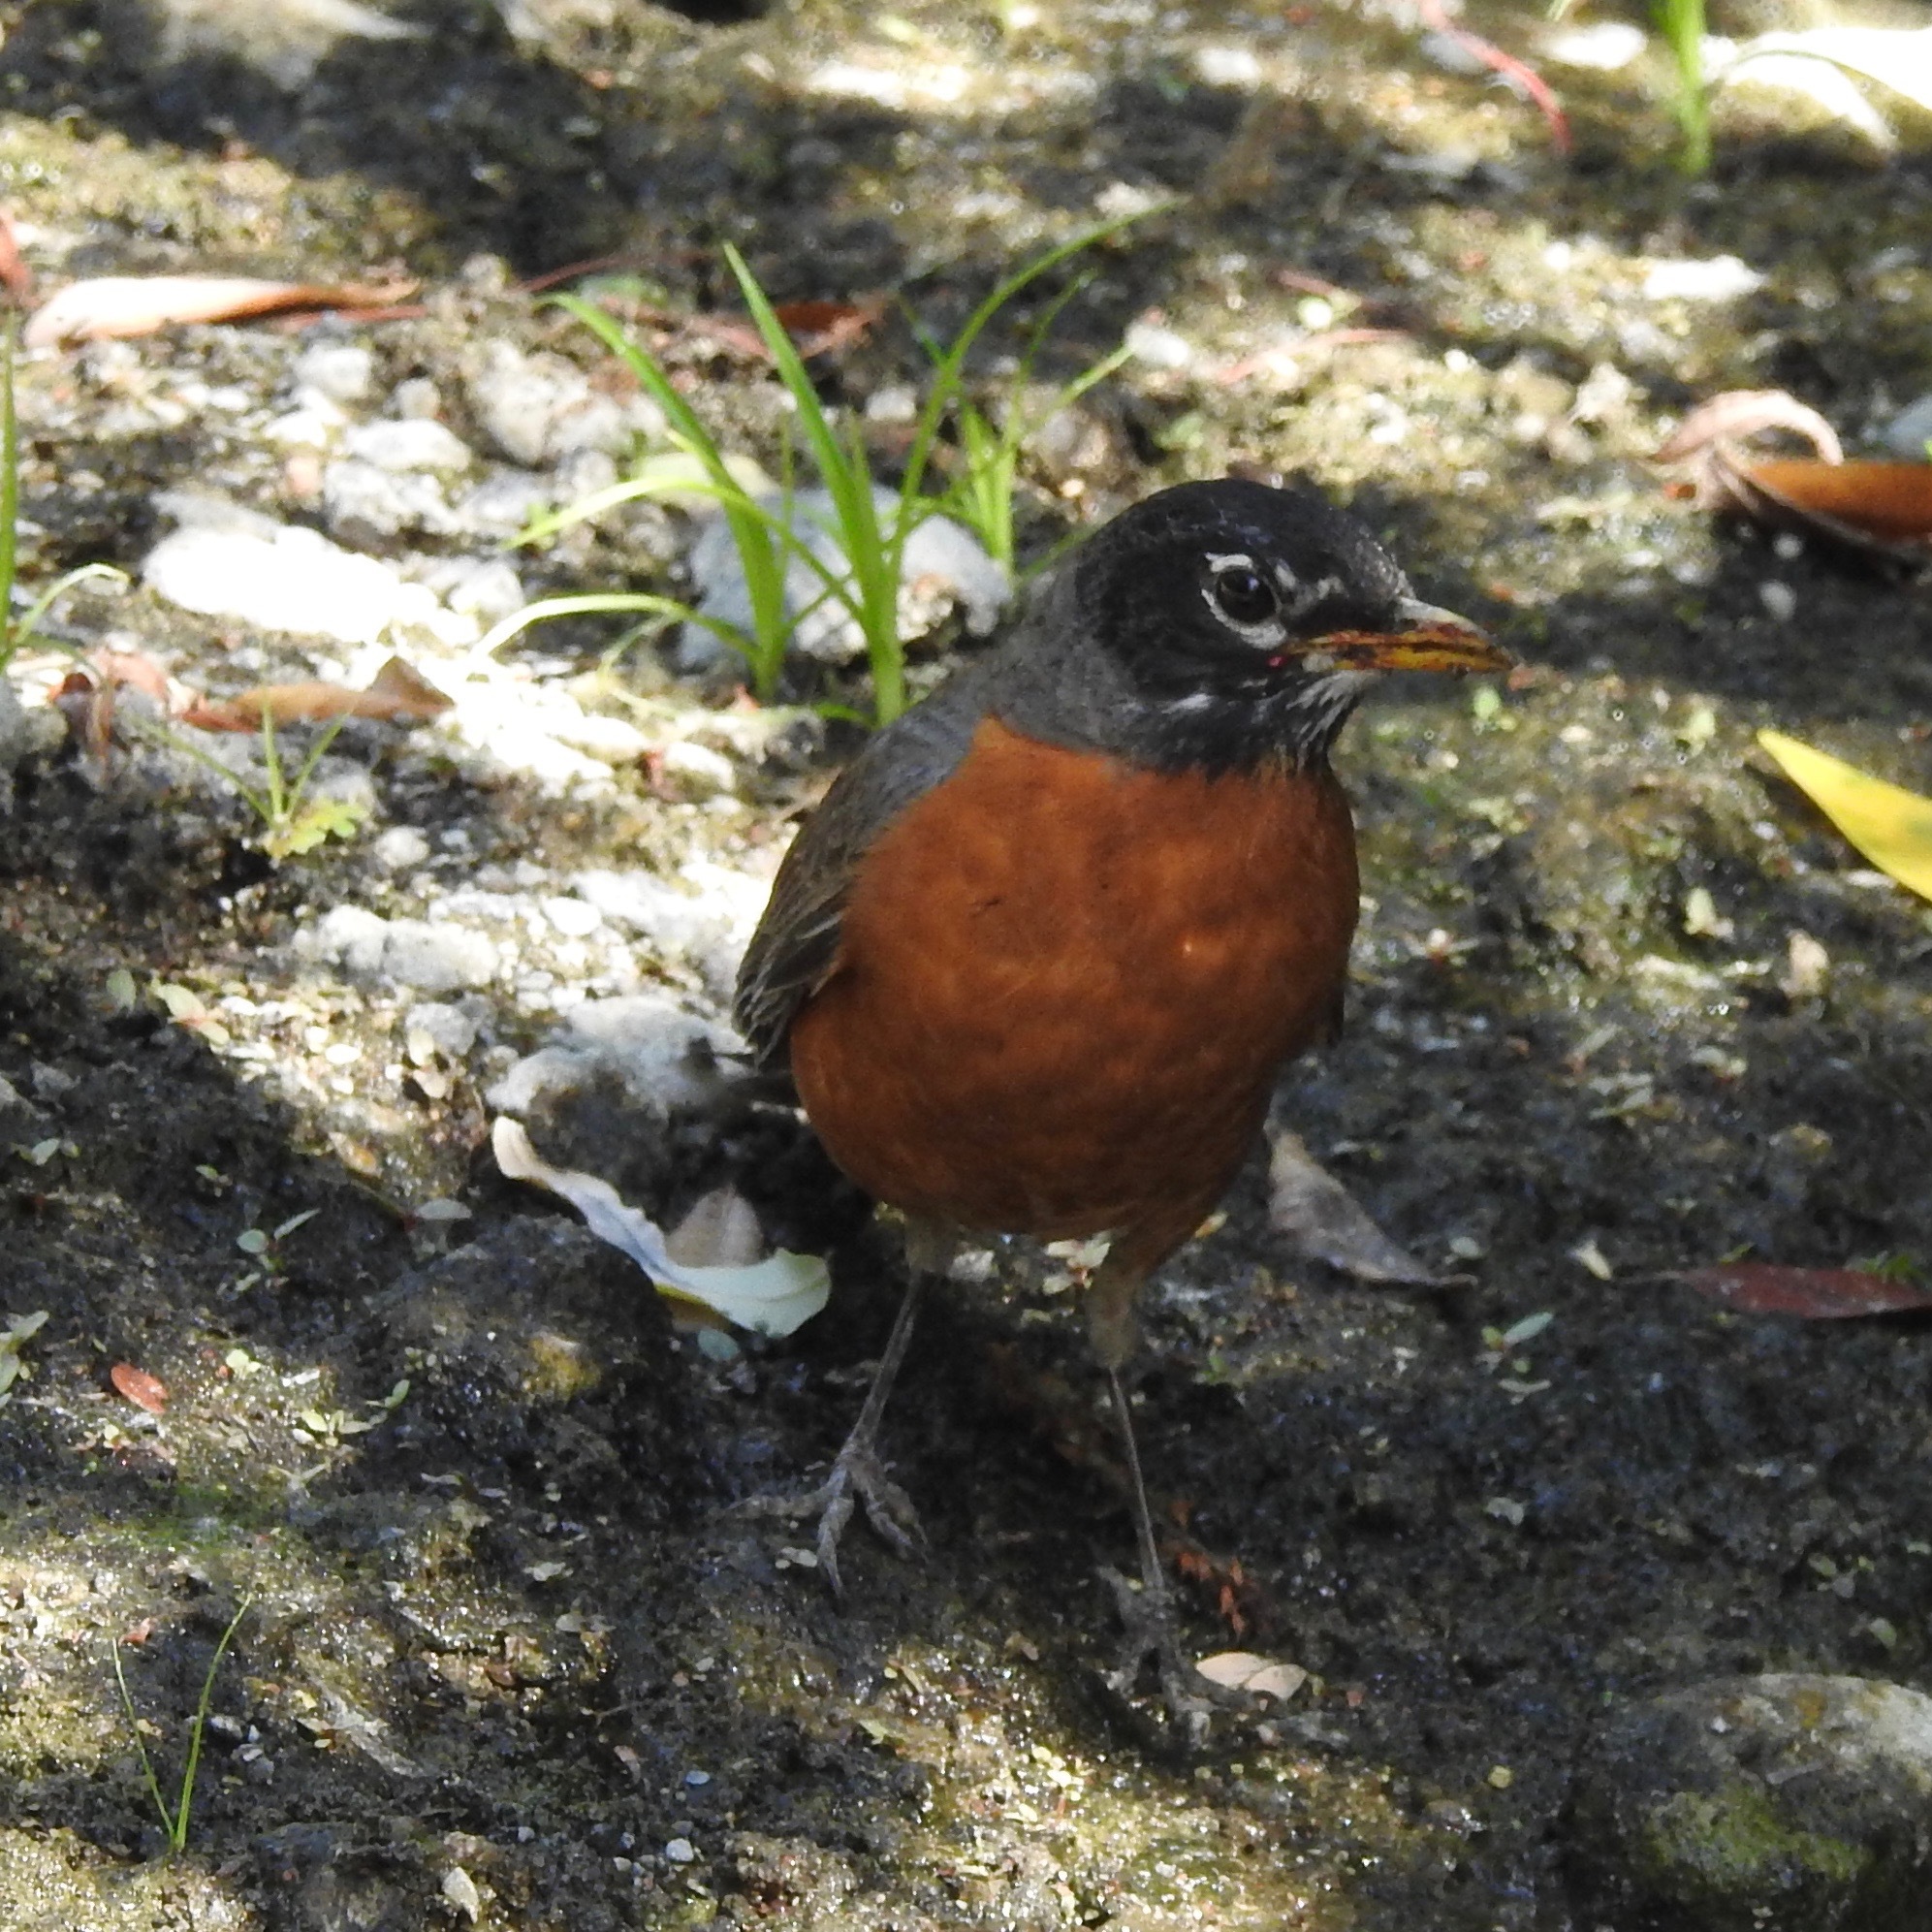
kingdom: Animalia
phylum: Chordata
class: Aves
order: Passeriformes
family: Turdidae
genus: Turdus
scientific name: Turdus migratorius
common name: American robin
